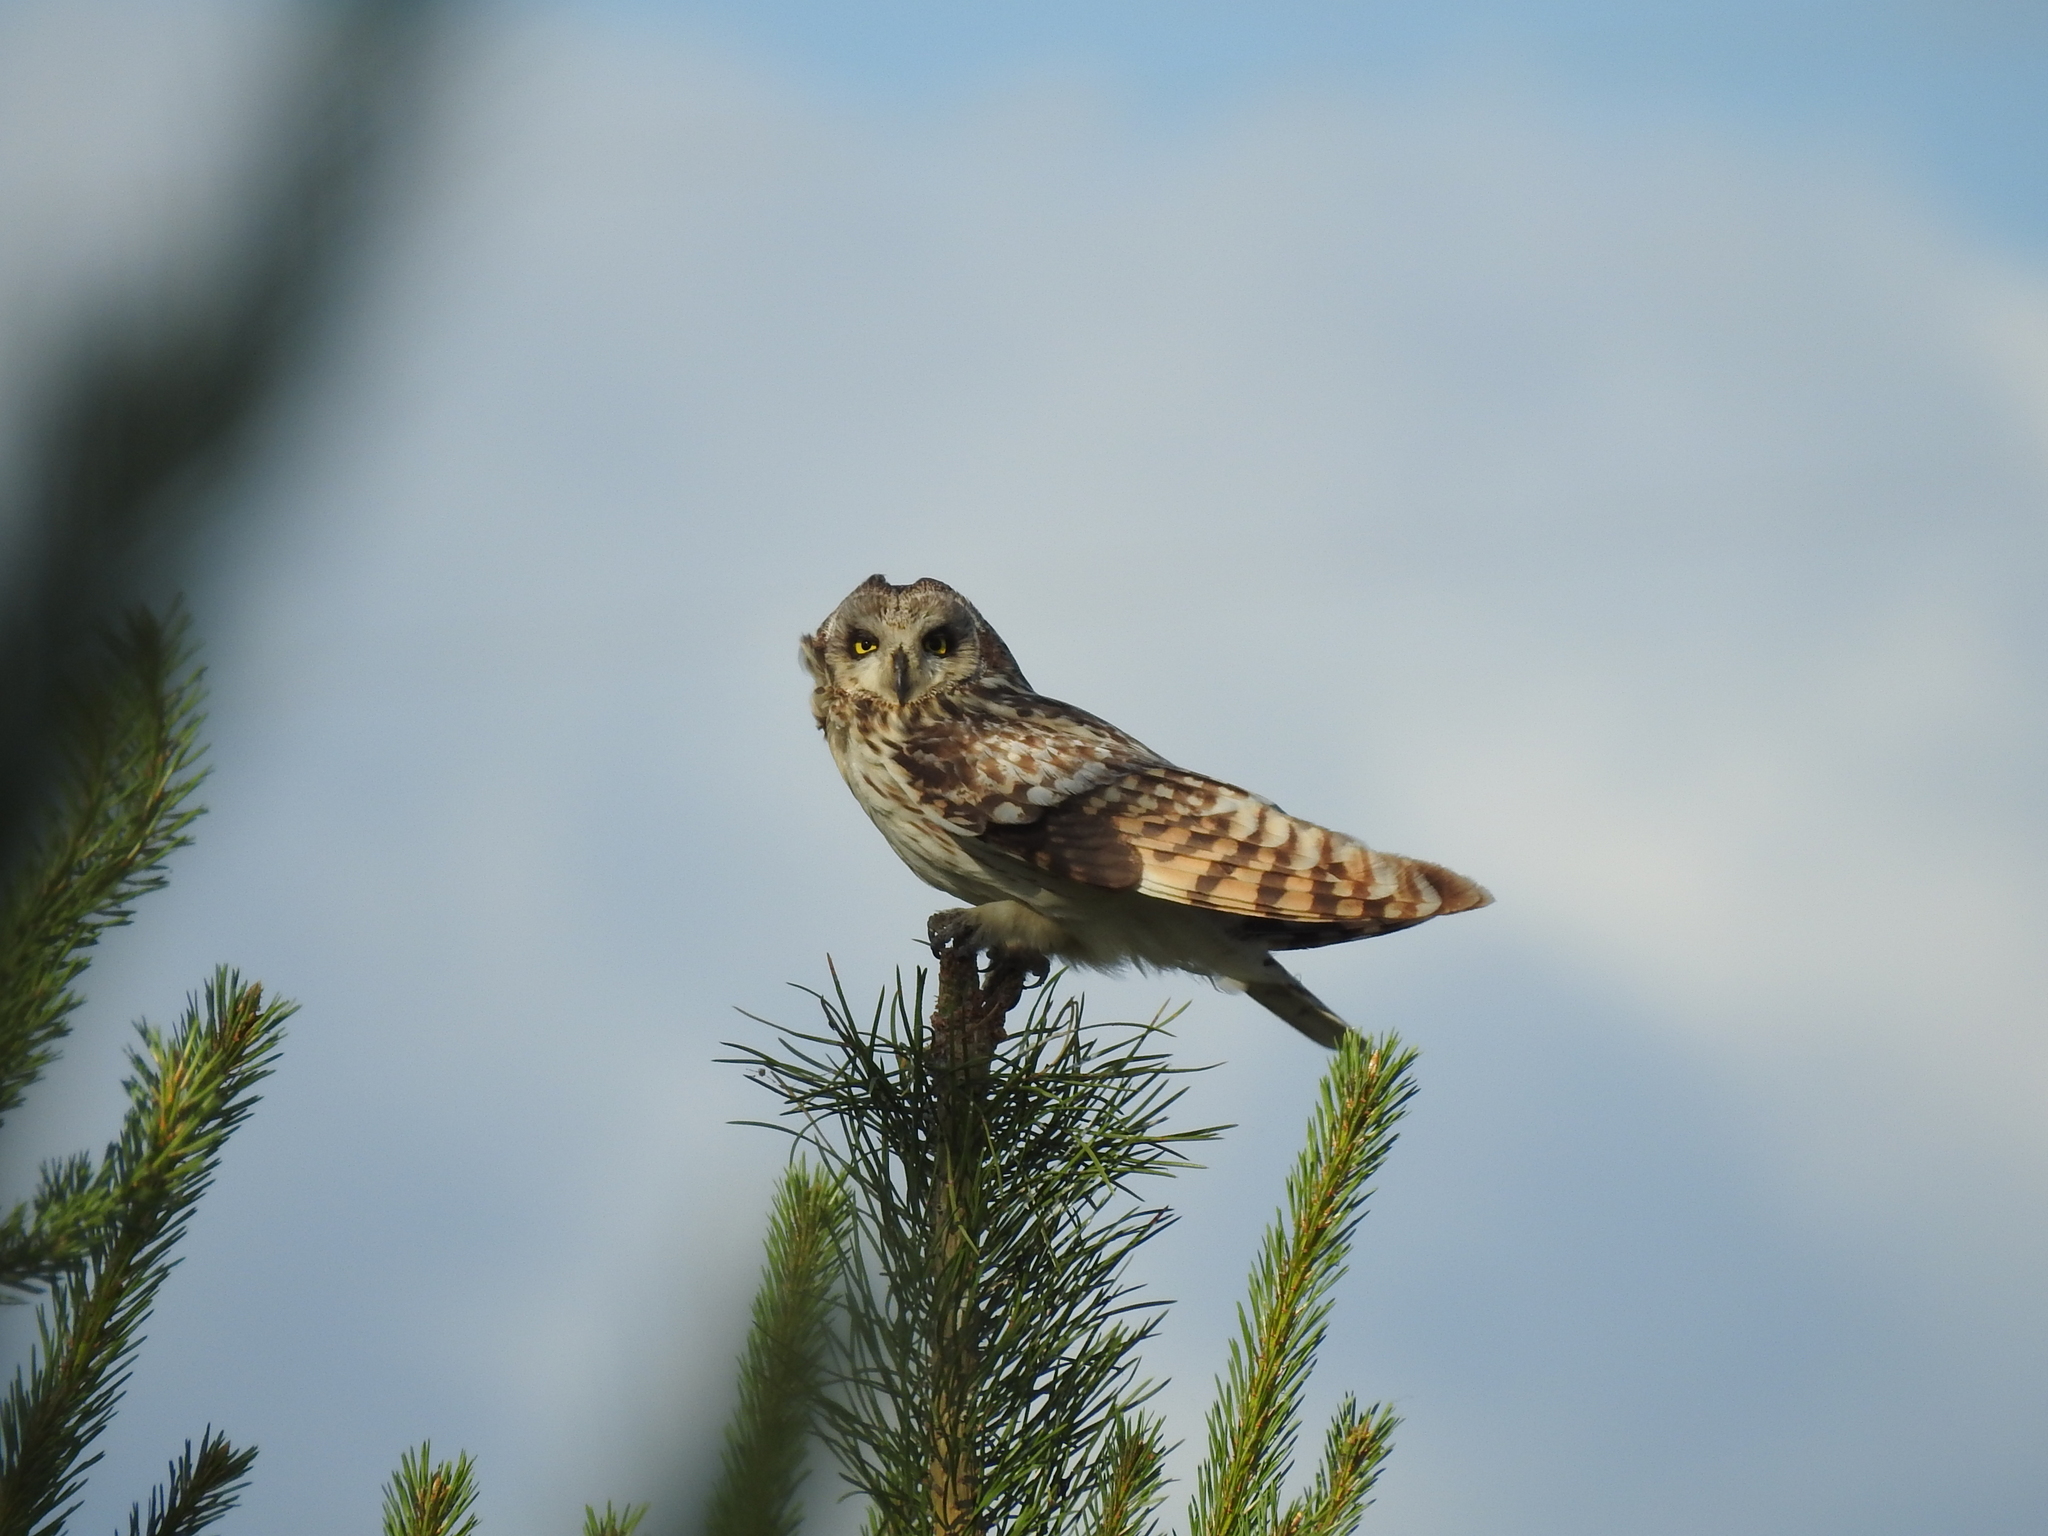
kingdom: Animalia
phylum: Chordata
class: Aves
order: Strigiformes
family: Strigidae
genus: Asio
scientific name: Asio flammeus
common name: Short-eared owl
